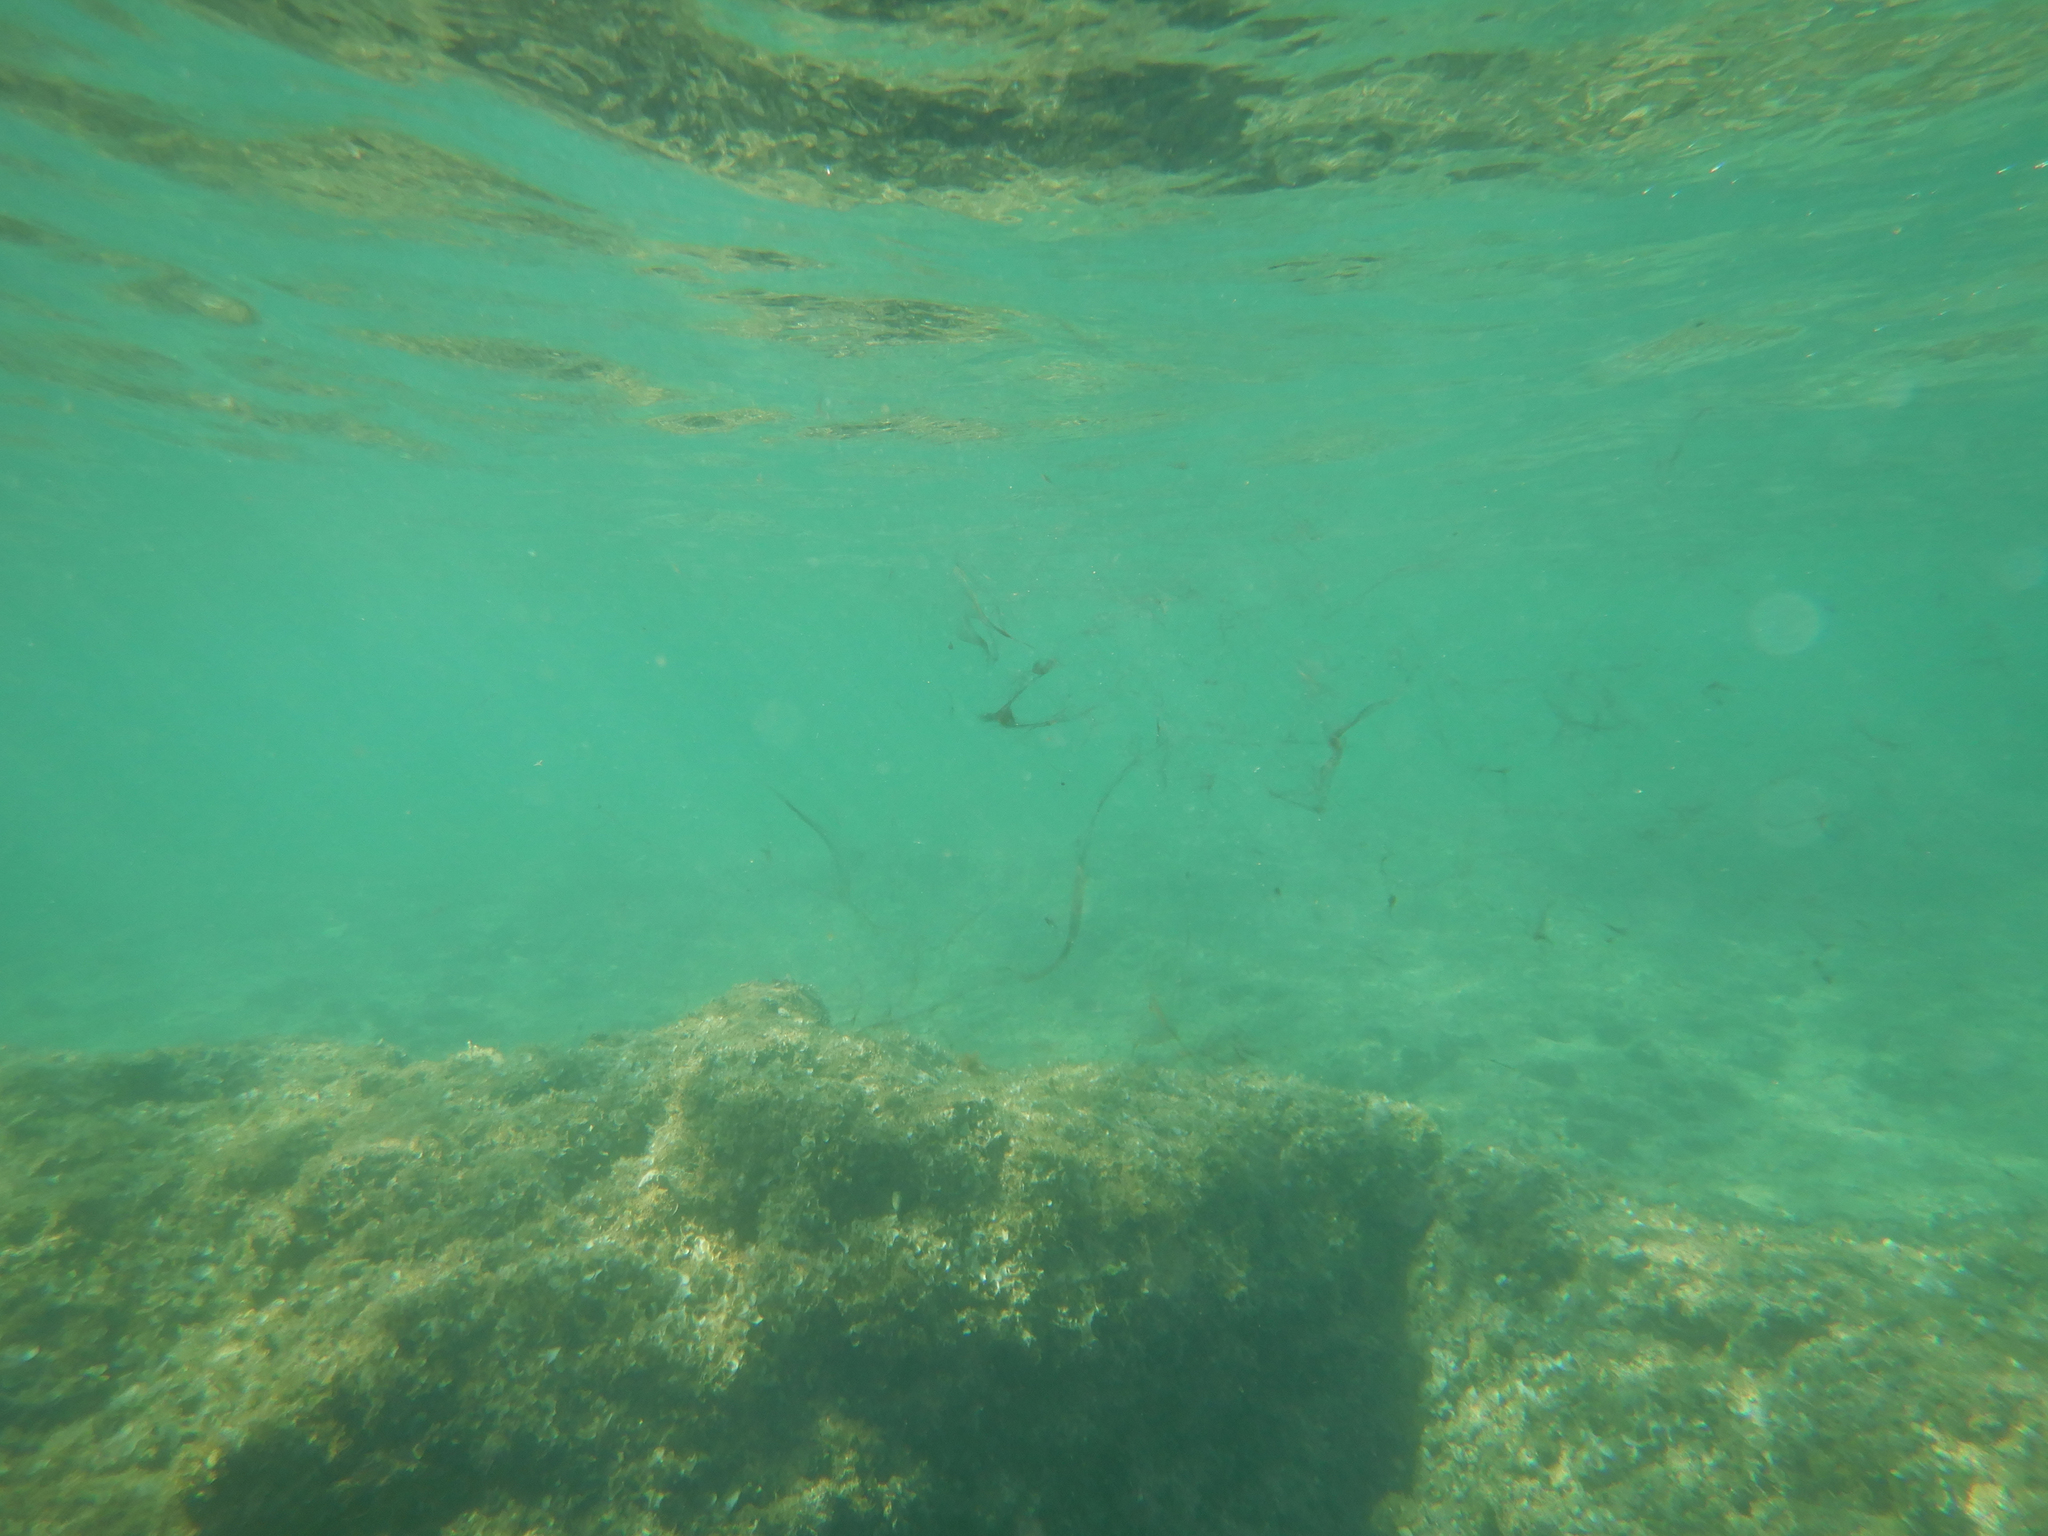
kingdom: Animalia
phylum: Mollusca
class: Cephalopoda
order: Sepiida
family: Sepiidae
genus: Sepia
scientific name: Sepia officinalis
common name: Common cuttlefish
